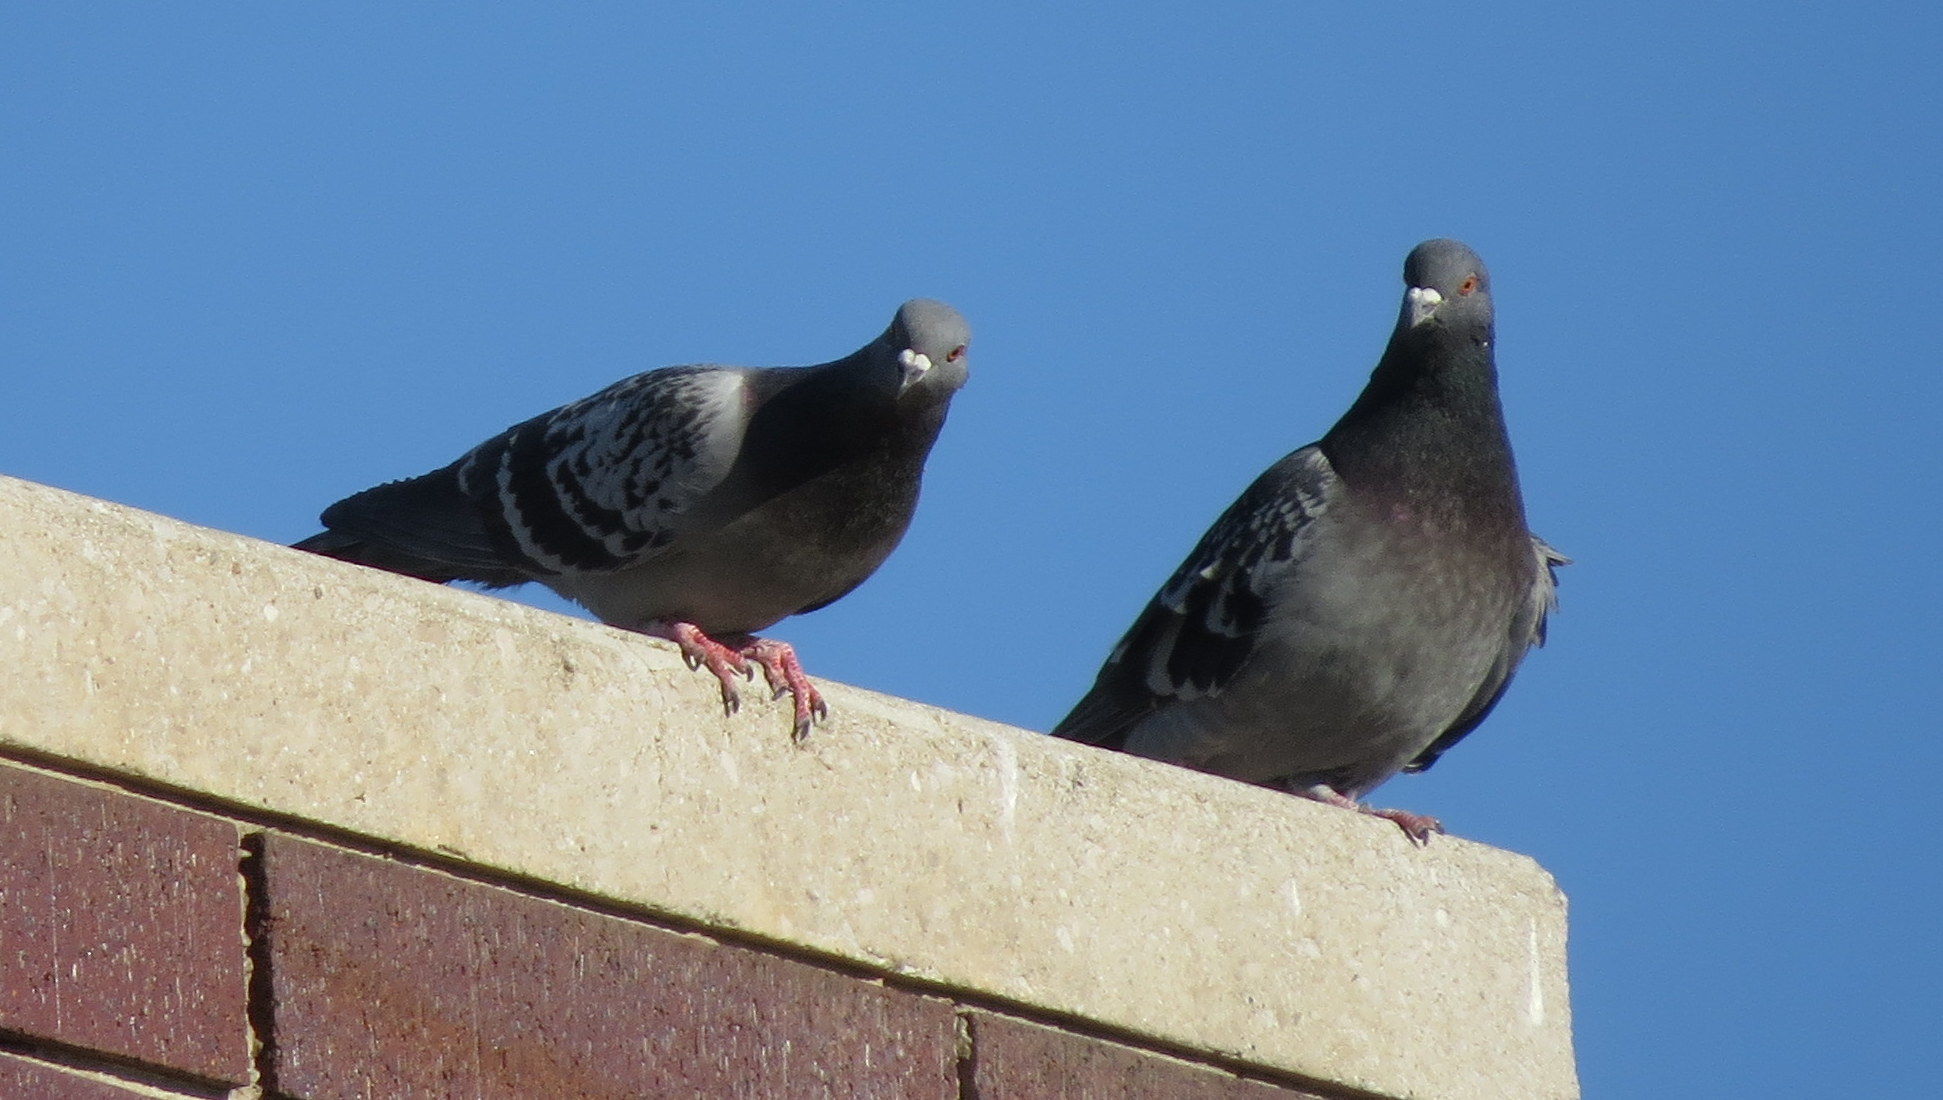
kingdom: Animalia
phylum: Chordata
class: Aves
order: Columbiformes
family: Columbidae
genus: Columba
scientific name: Columba livia
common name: Rock pigeon
